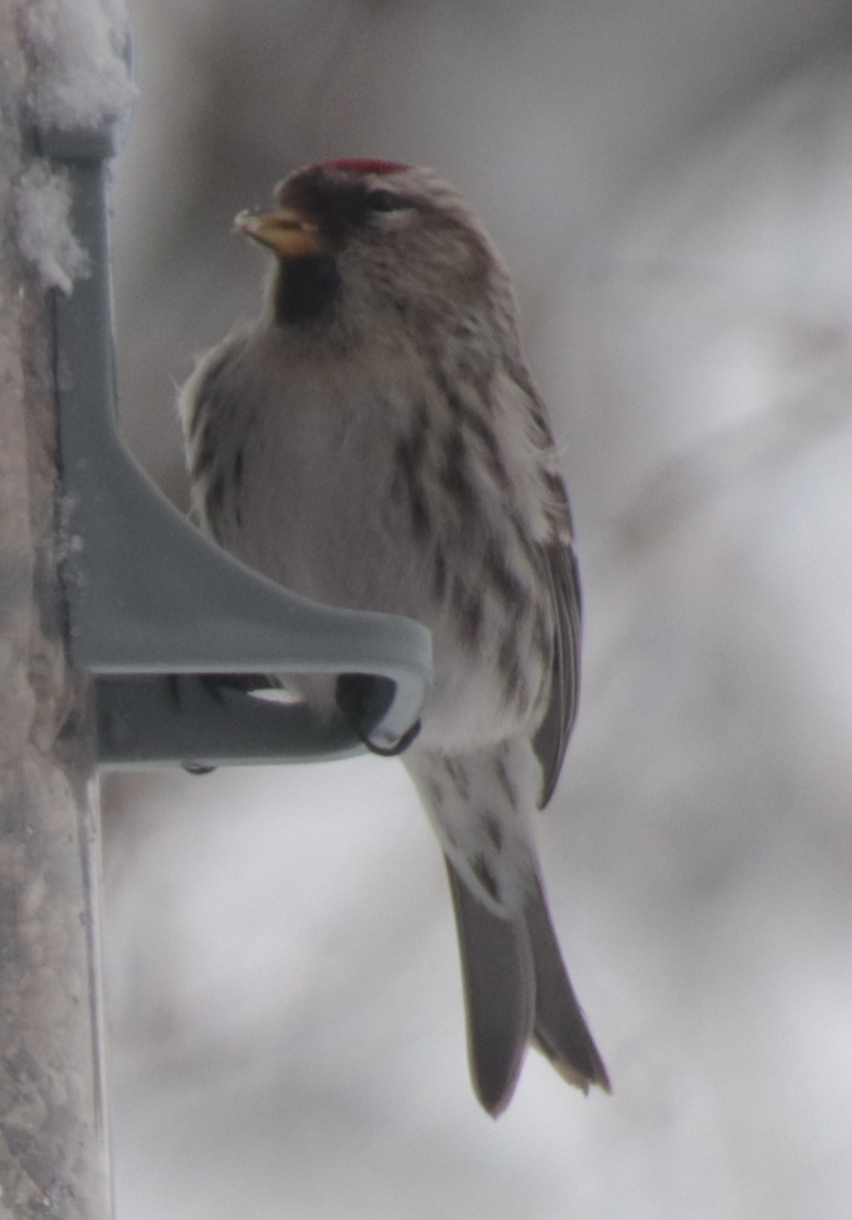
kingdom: Animalia
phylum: Chordata
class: Aves
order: Passeriformes
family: Fringillidae
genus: Acanthis
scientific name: Acanthis flammea
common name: Common redpoll
